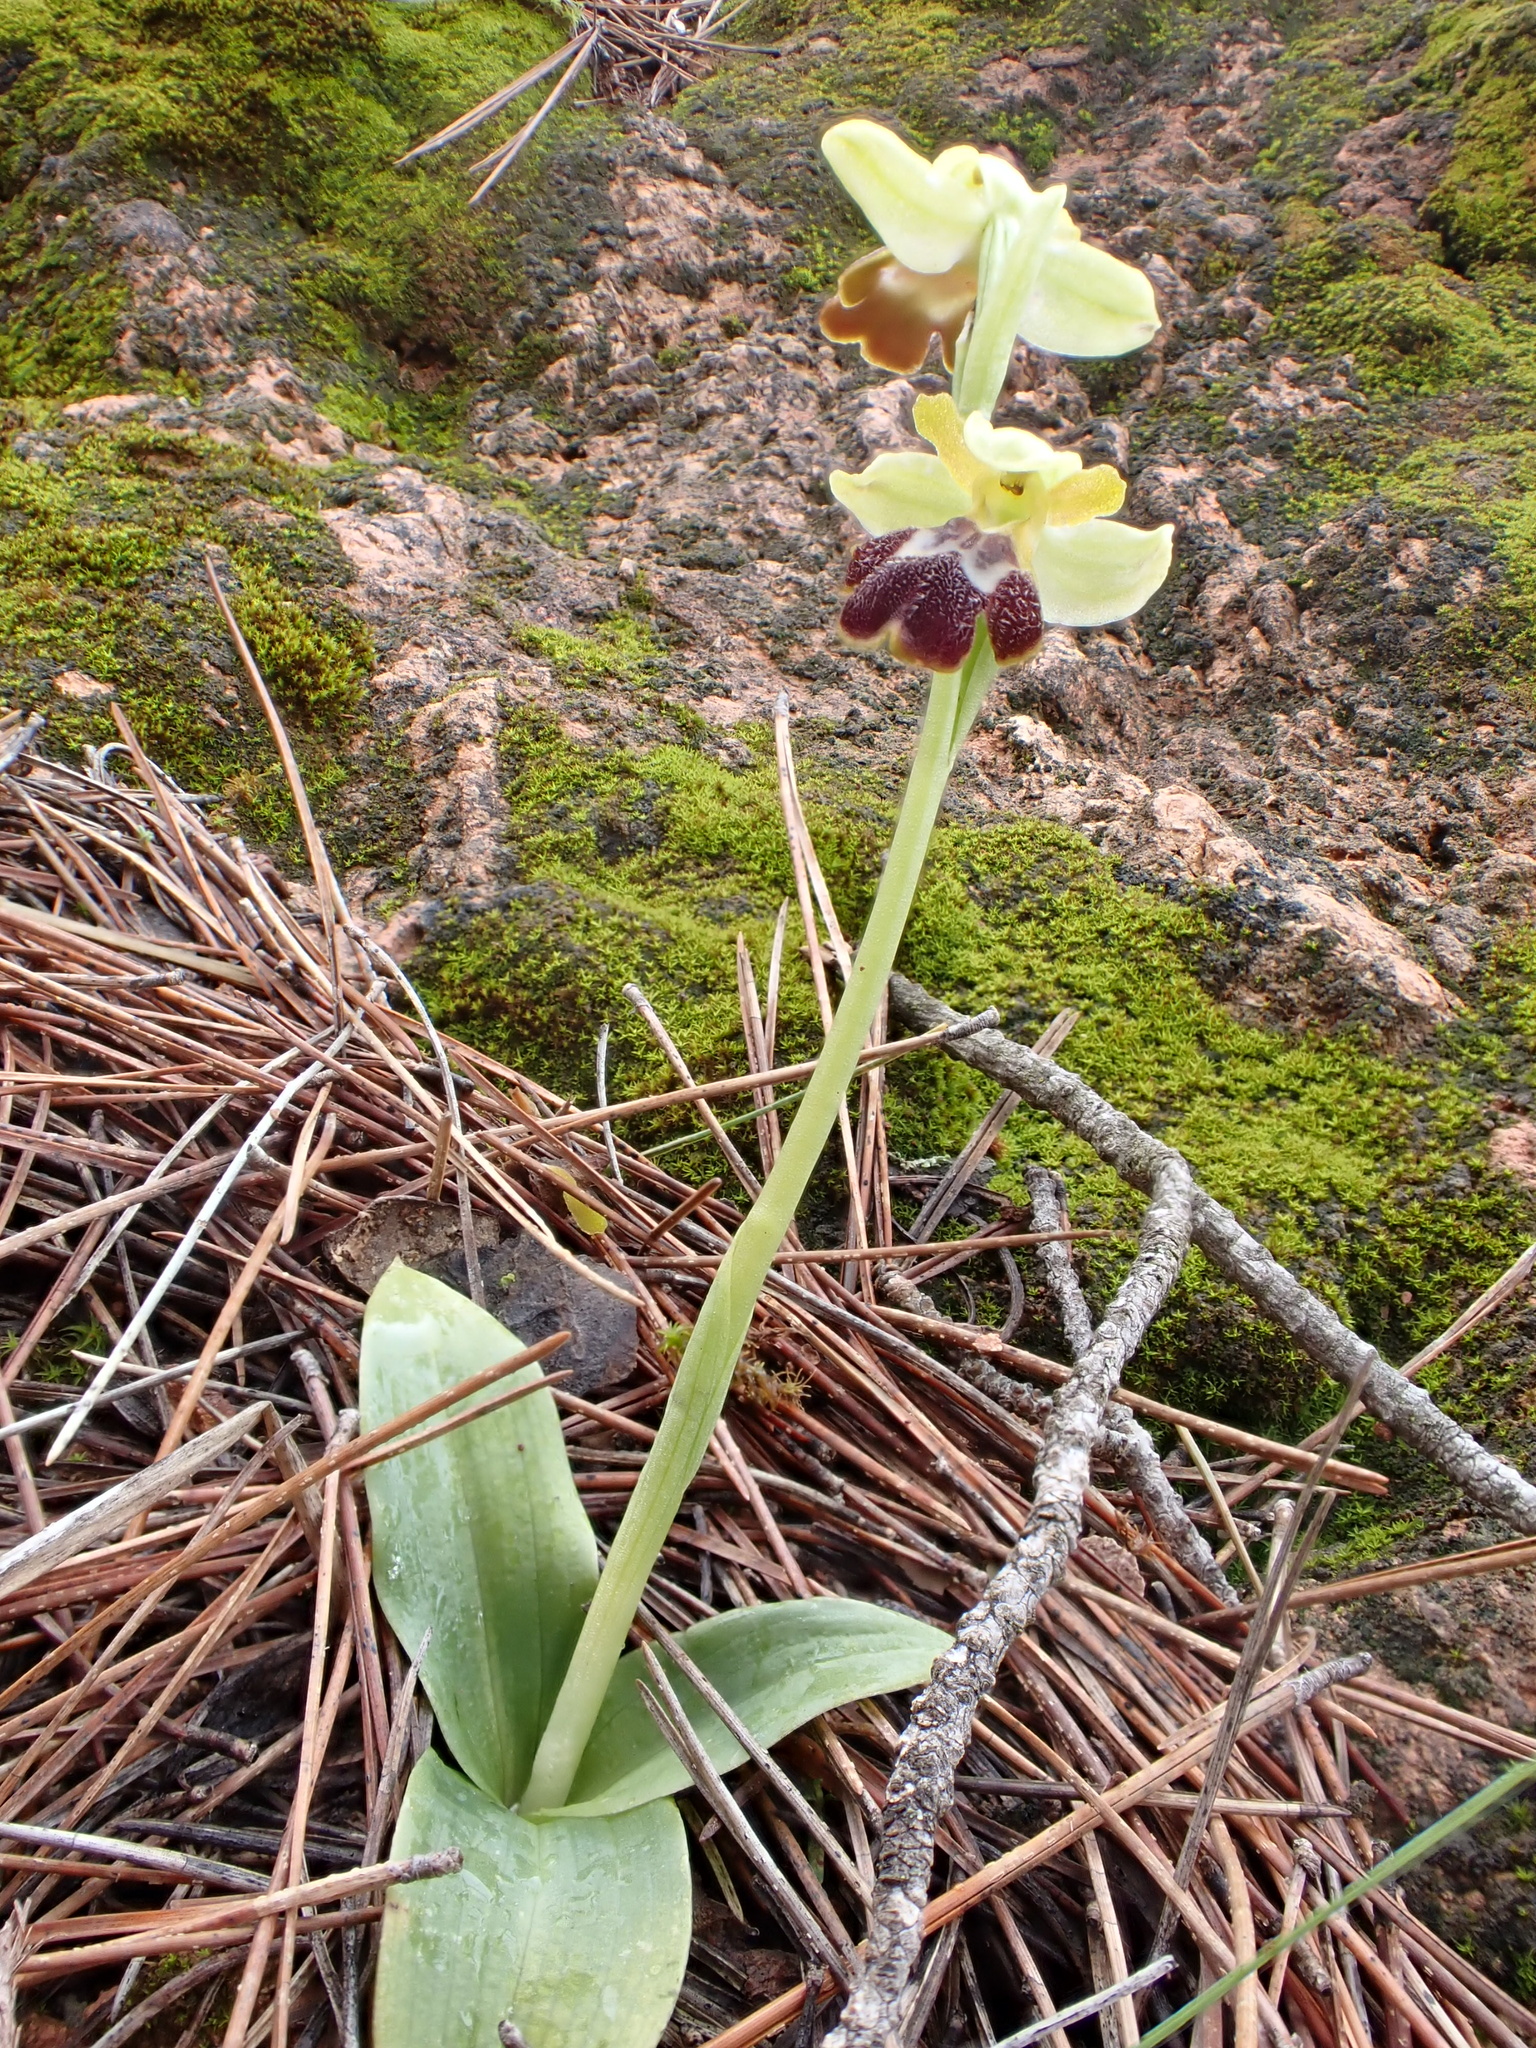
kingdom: Plantae
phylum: Tracheophyta
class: Liliopsida
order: Asparagales
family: Orchidaceae
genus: Ophrys
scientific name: Ophrys fusca
